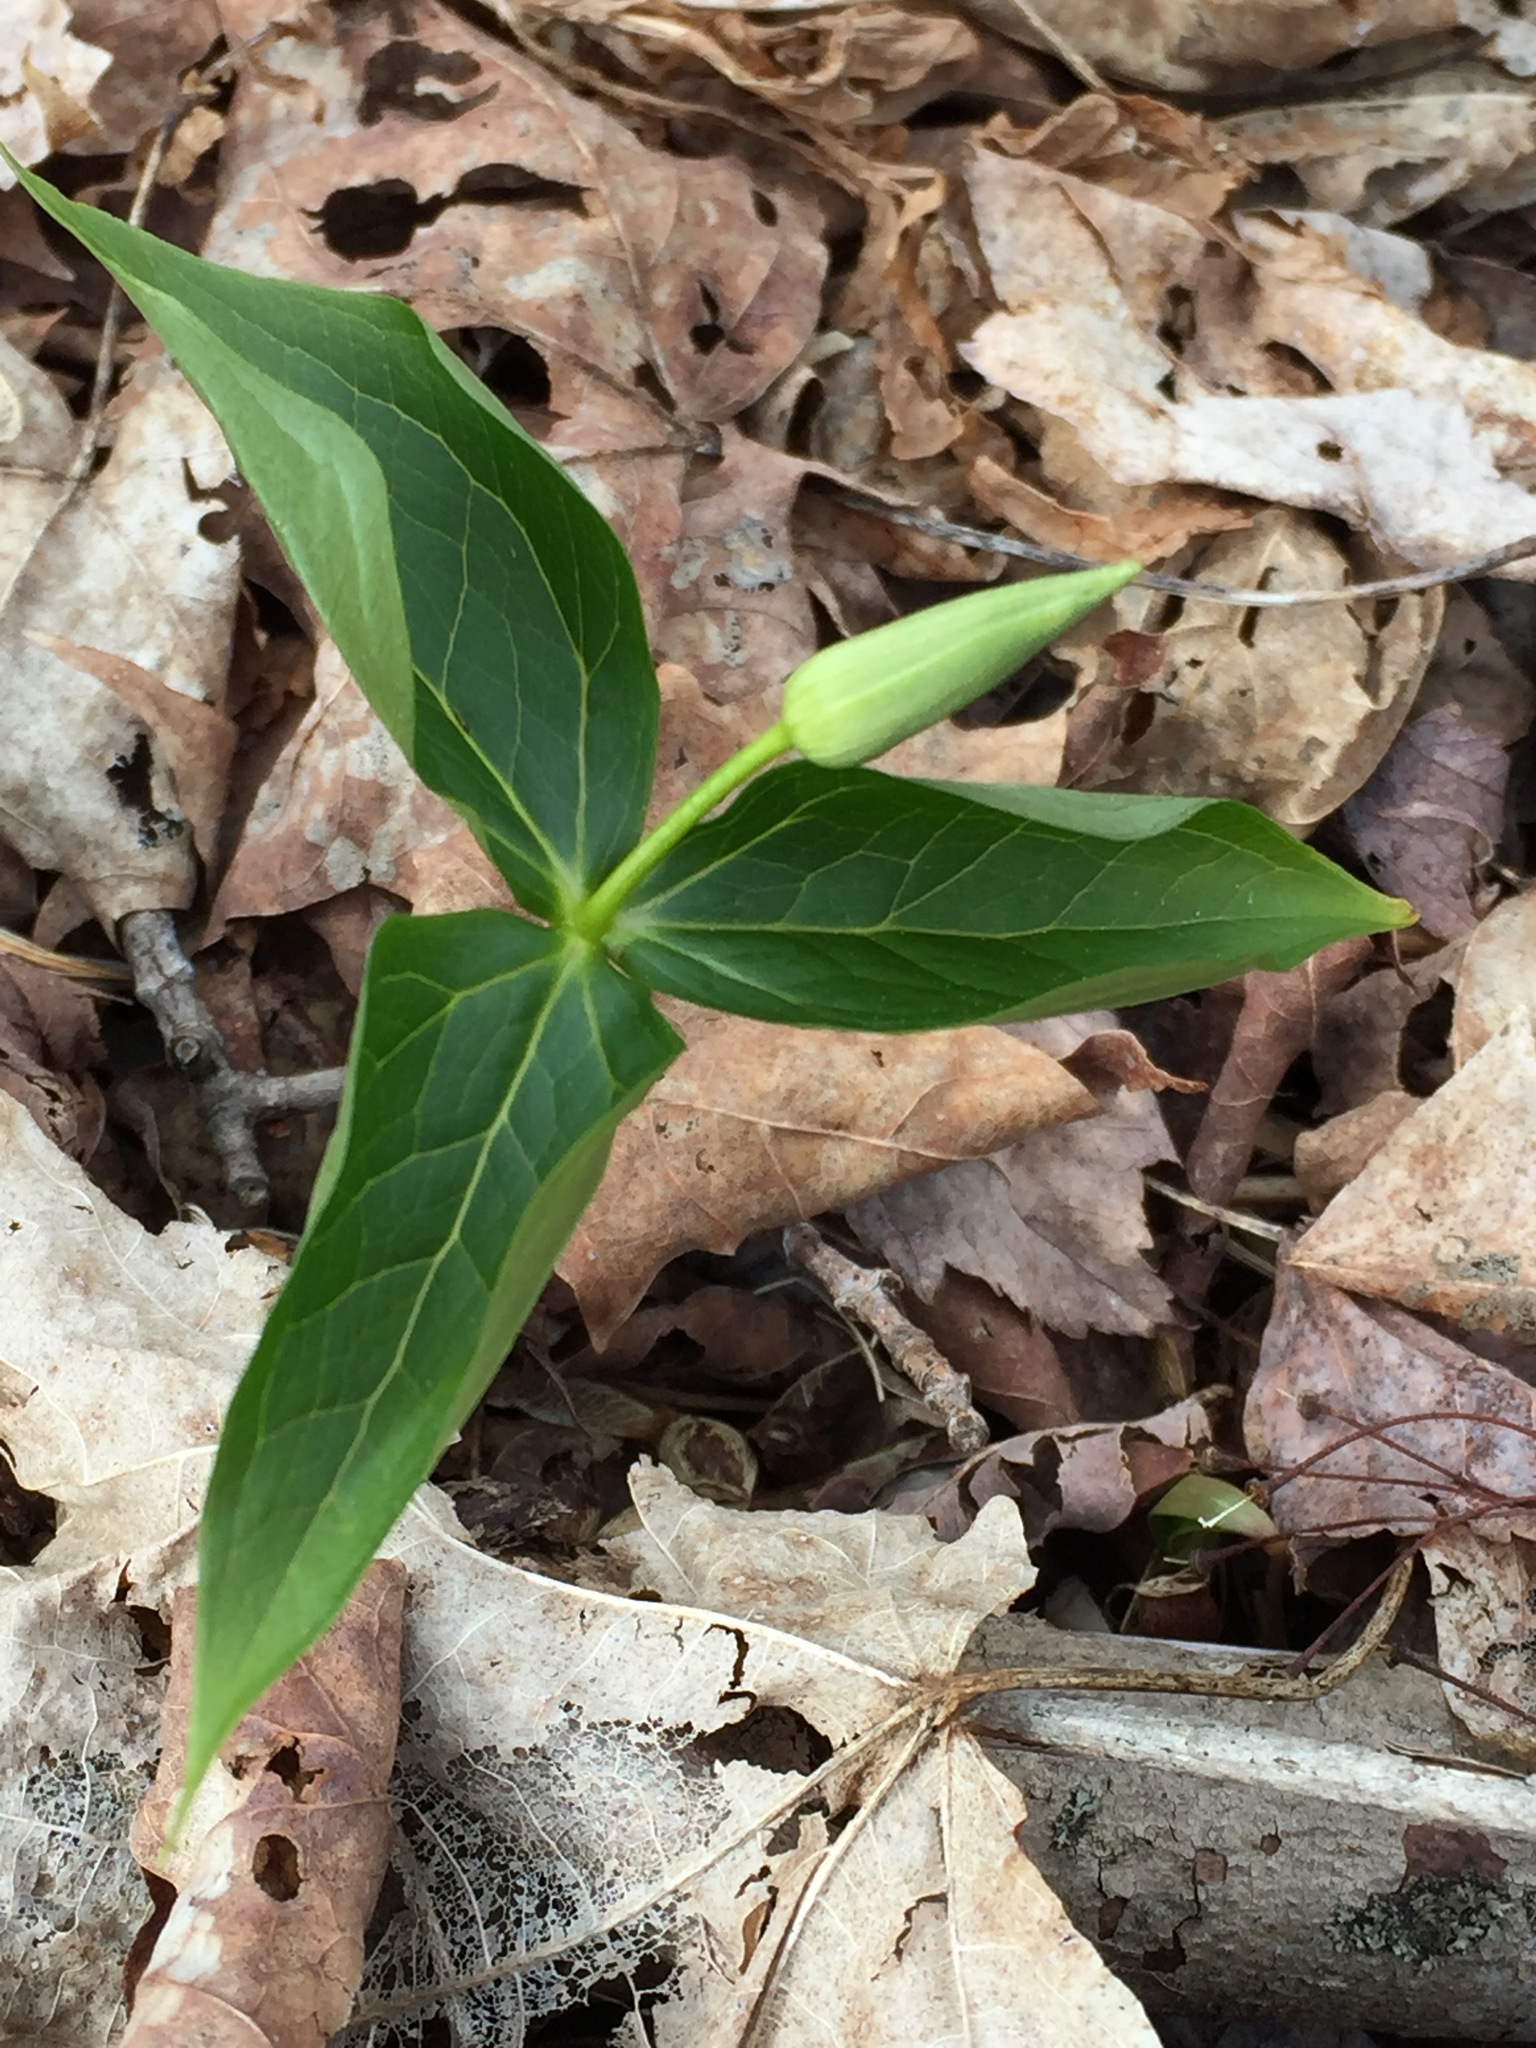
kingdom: Plantae
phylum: Tracheophyta
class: Liliopsida
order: Liliales
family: Melanthiaceae
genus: Trillium
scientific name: Trillium erectum
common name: Purple trillium
